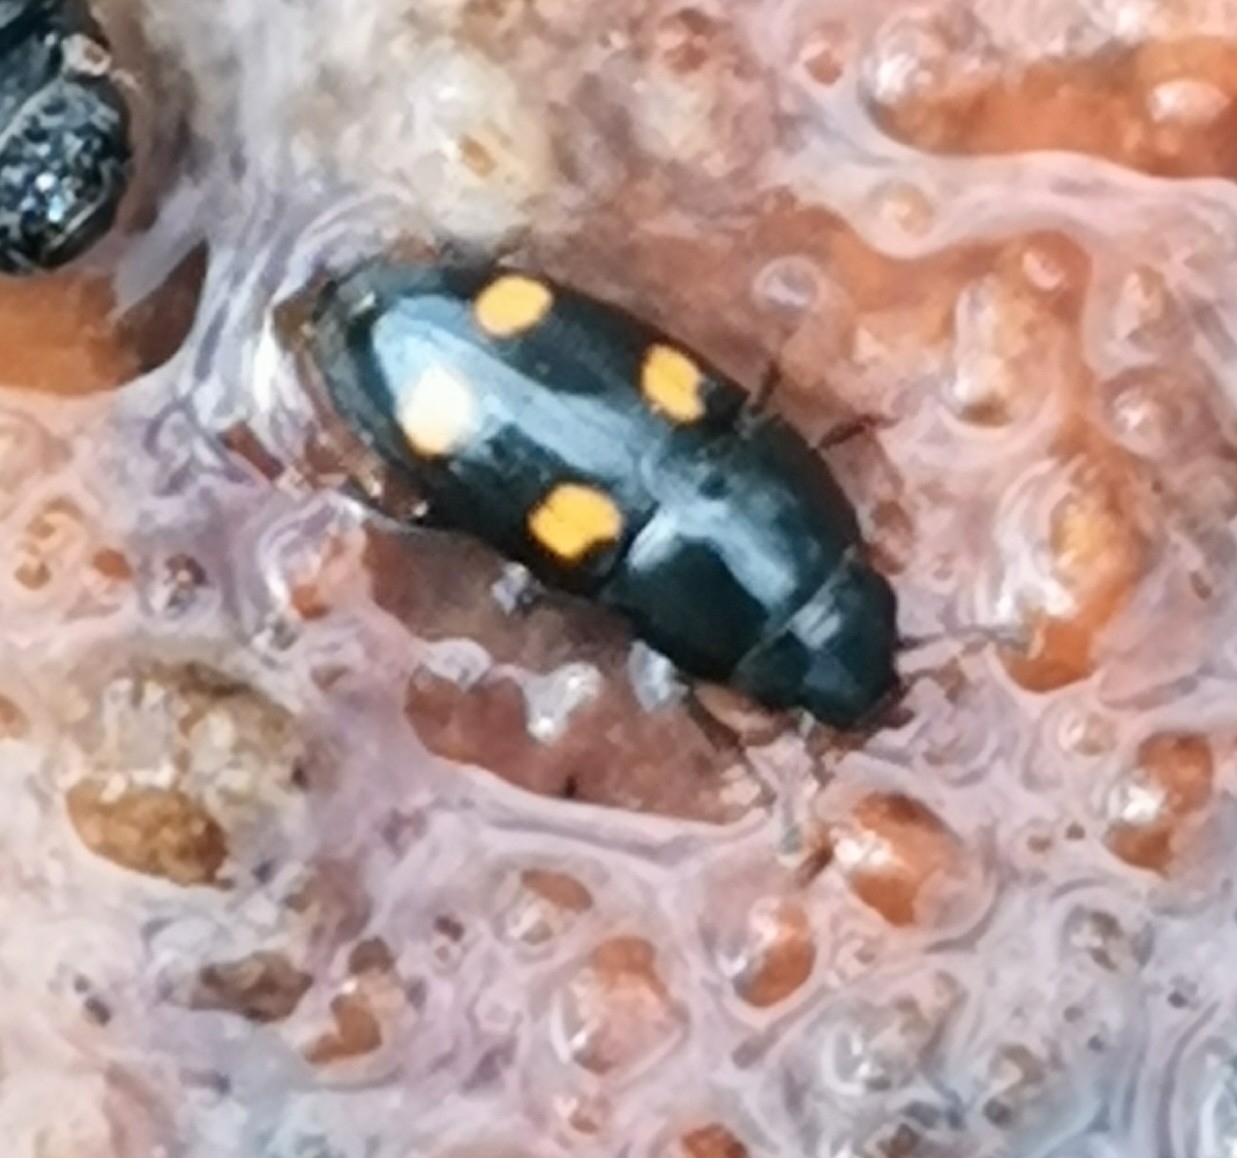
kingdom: Animalia
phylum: Arthropoda
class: Insecta
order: Coleoptera
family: Nitidulidae
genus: Glischrochilus
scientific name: Glischrochilus hortensis
